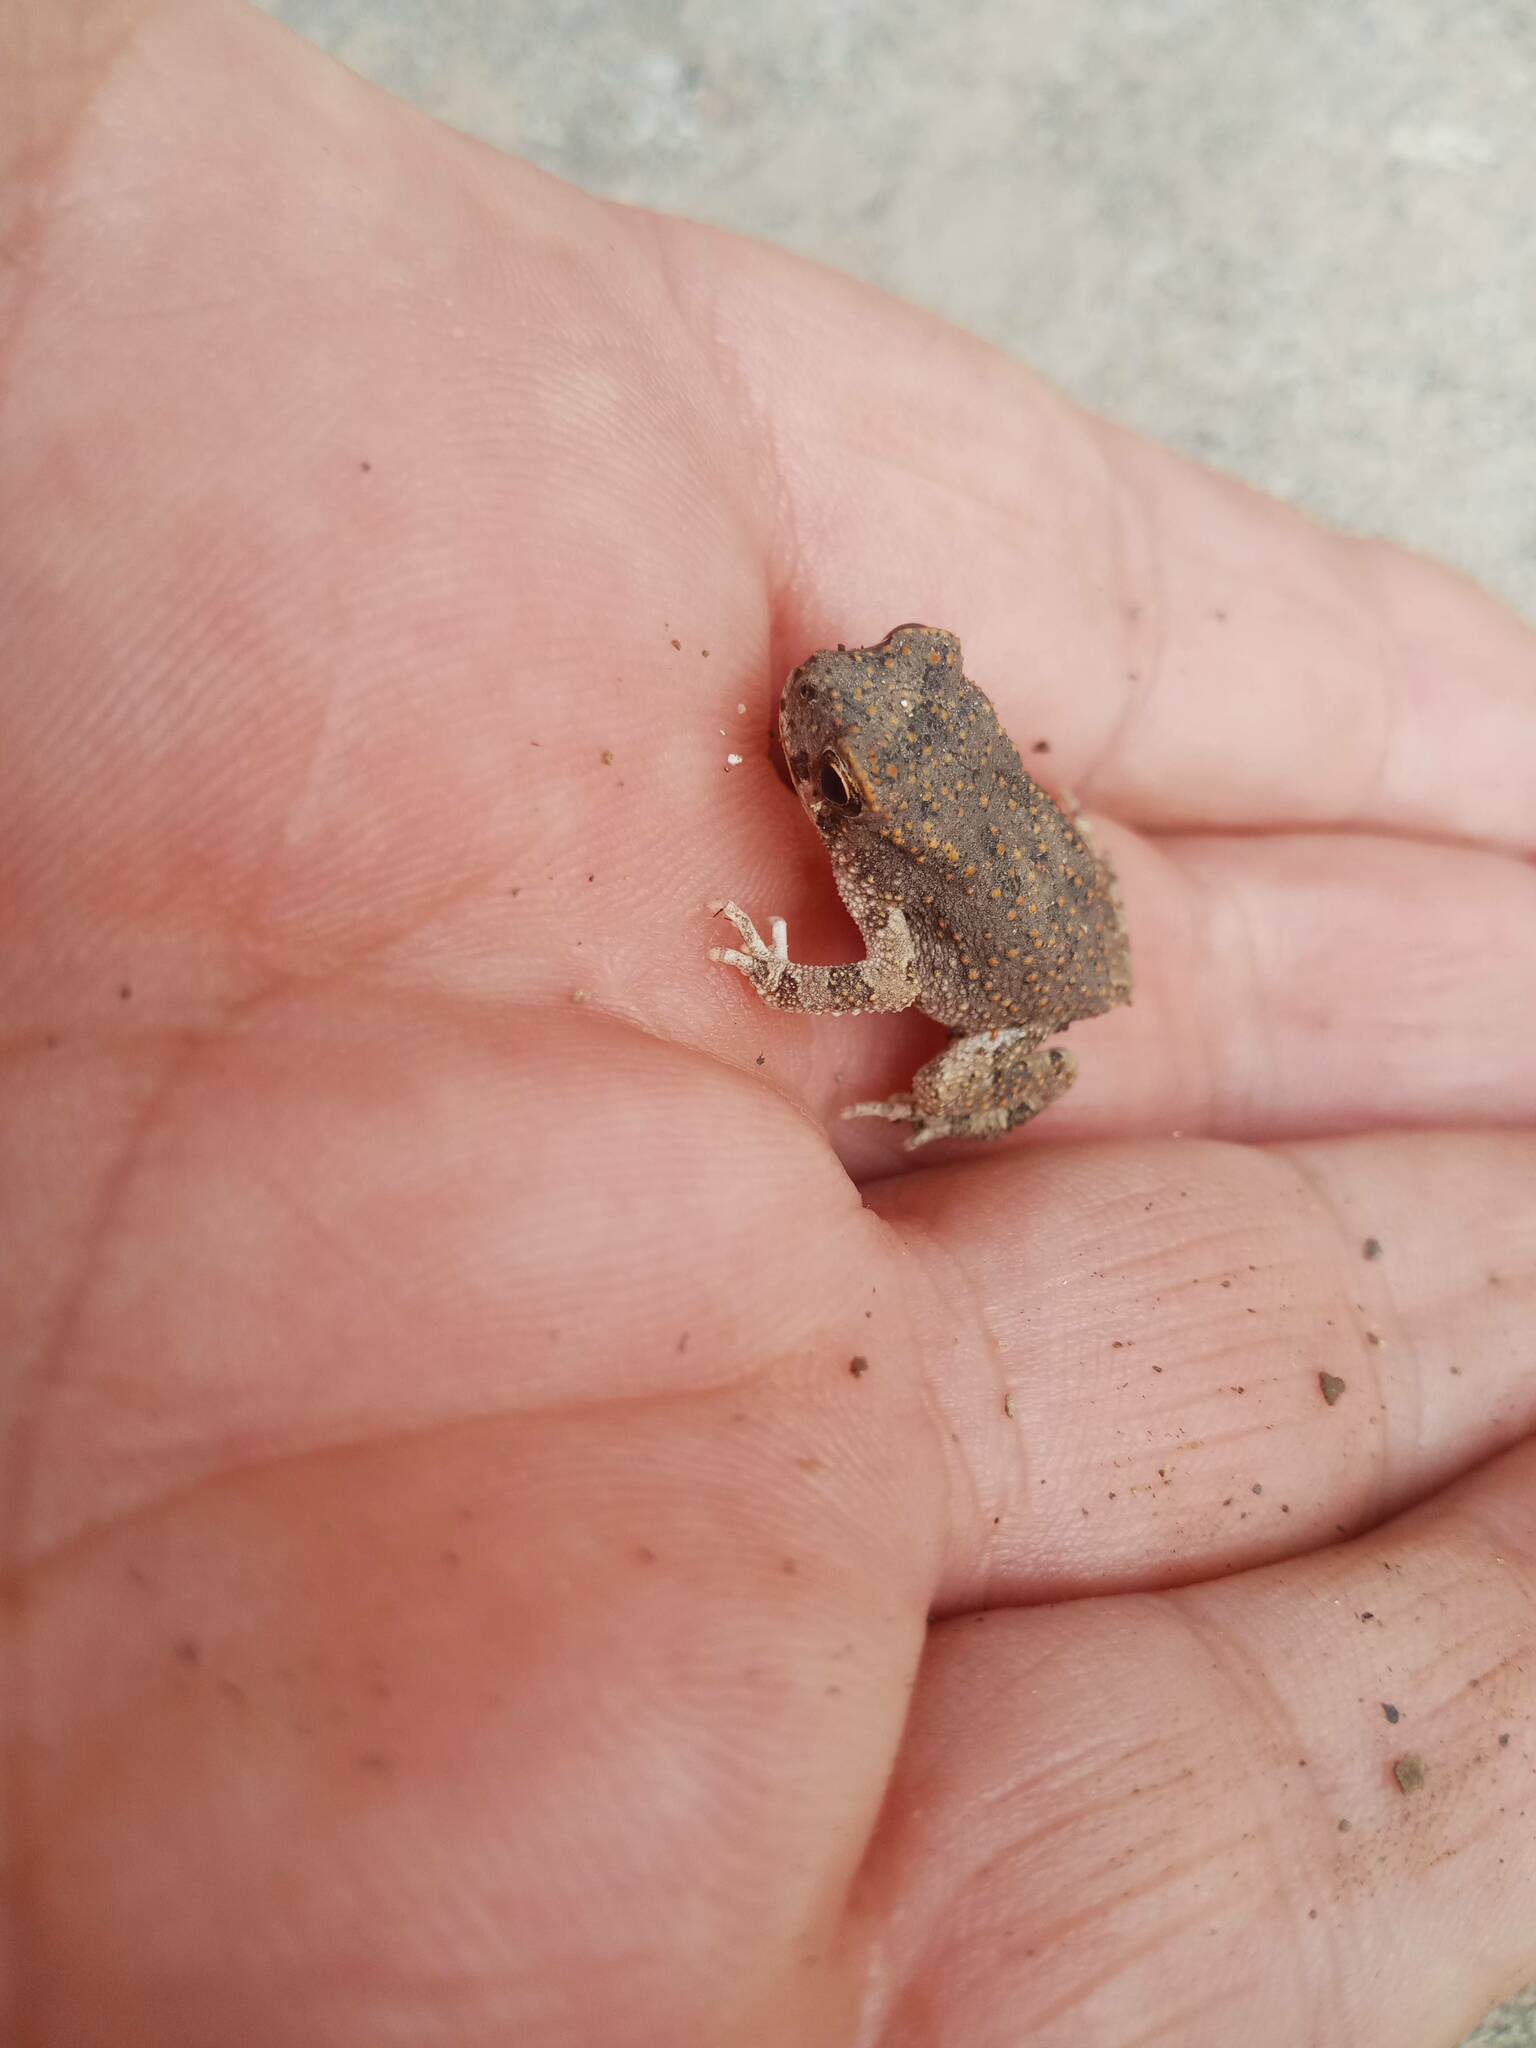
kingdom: Animalia
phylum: Chordata
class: Amphibia
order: Anura
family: Bufonidae
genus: Sclerophrys
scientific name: Sclerophrys mauritanica
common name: Berber toad
